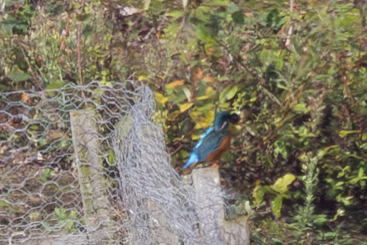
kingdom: Animalia
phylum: Chordata
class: Aves
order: Coraciiformes
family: Alcedinidae
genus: Alcedo
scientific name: Alcedo atthis
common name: Common kingfisher
